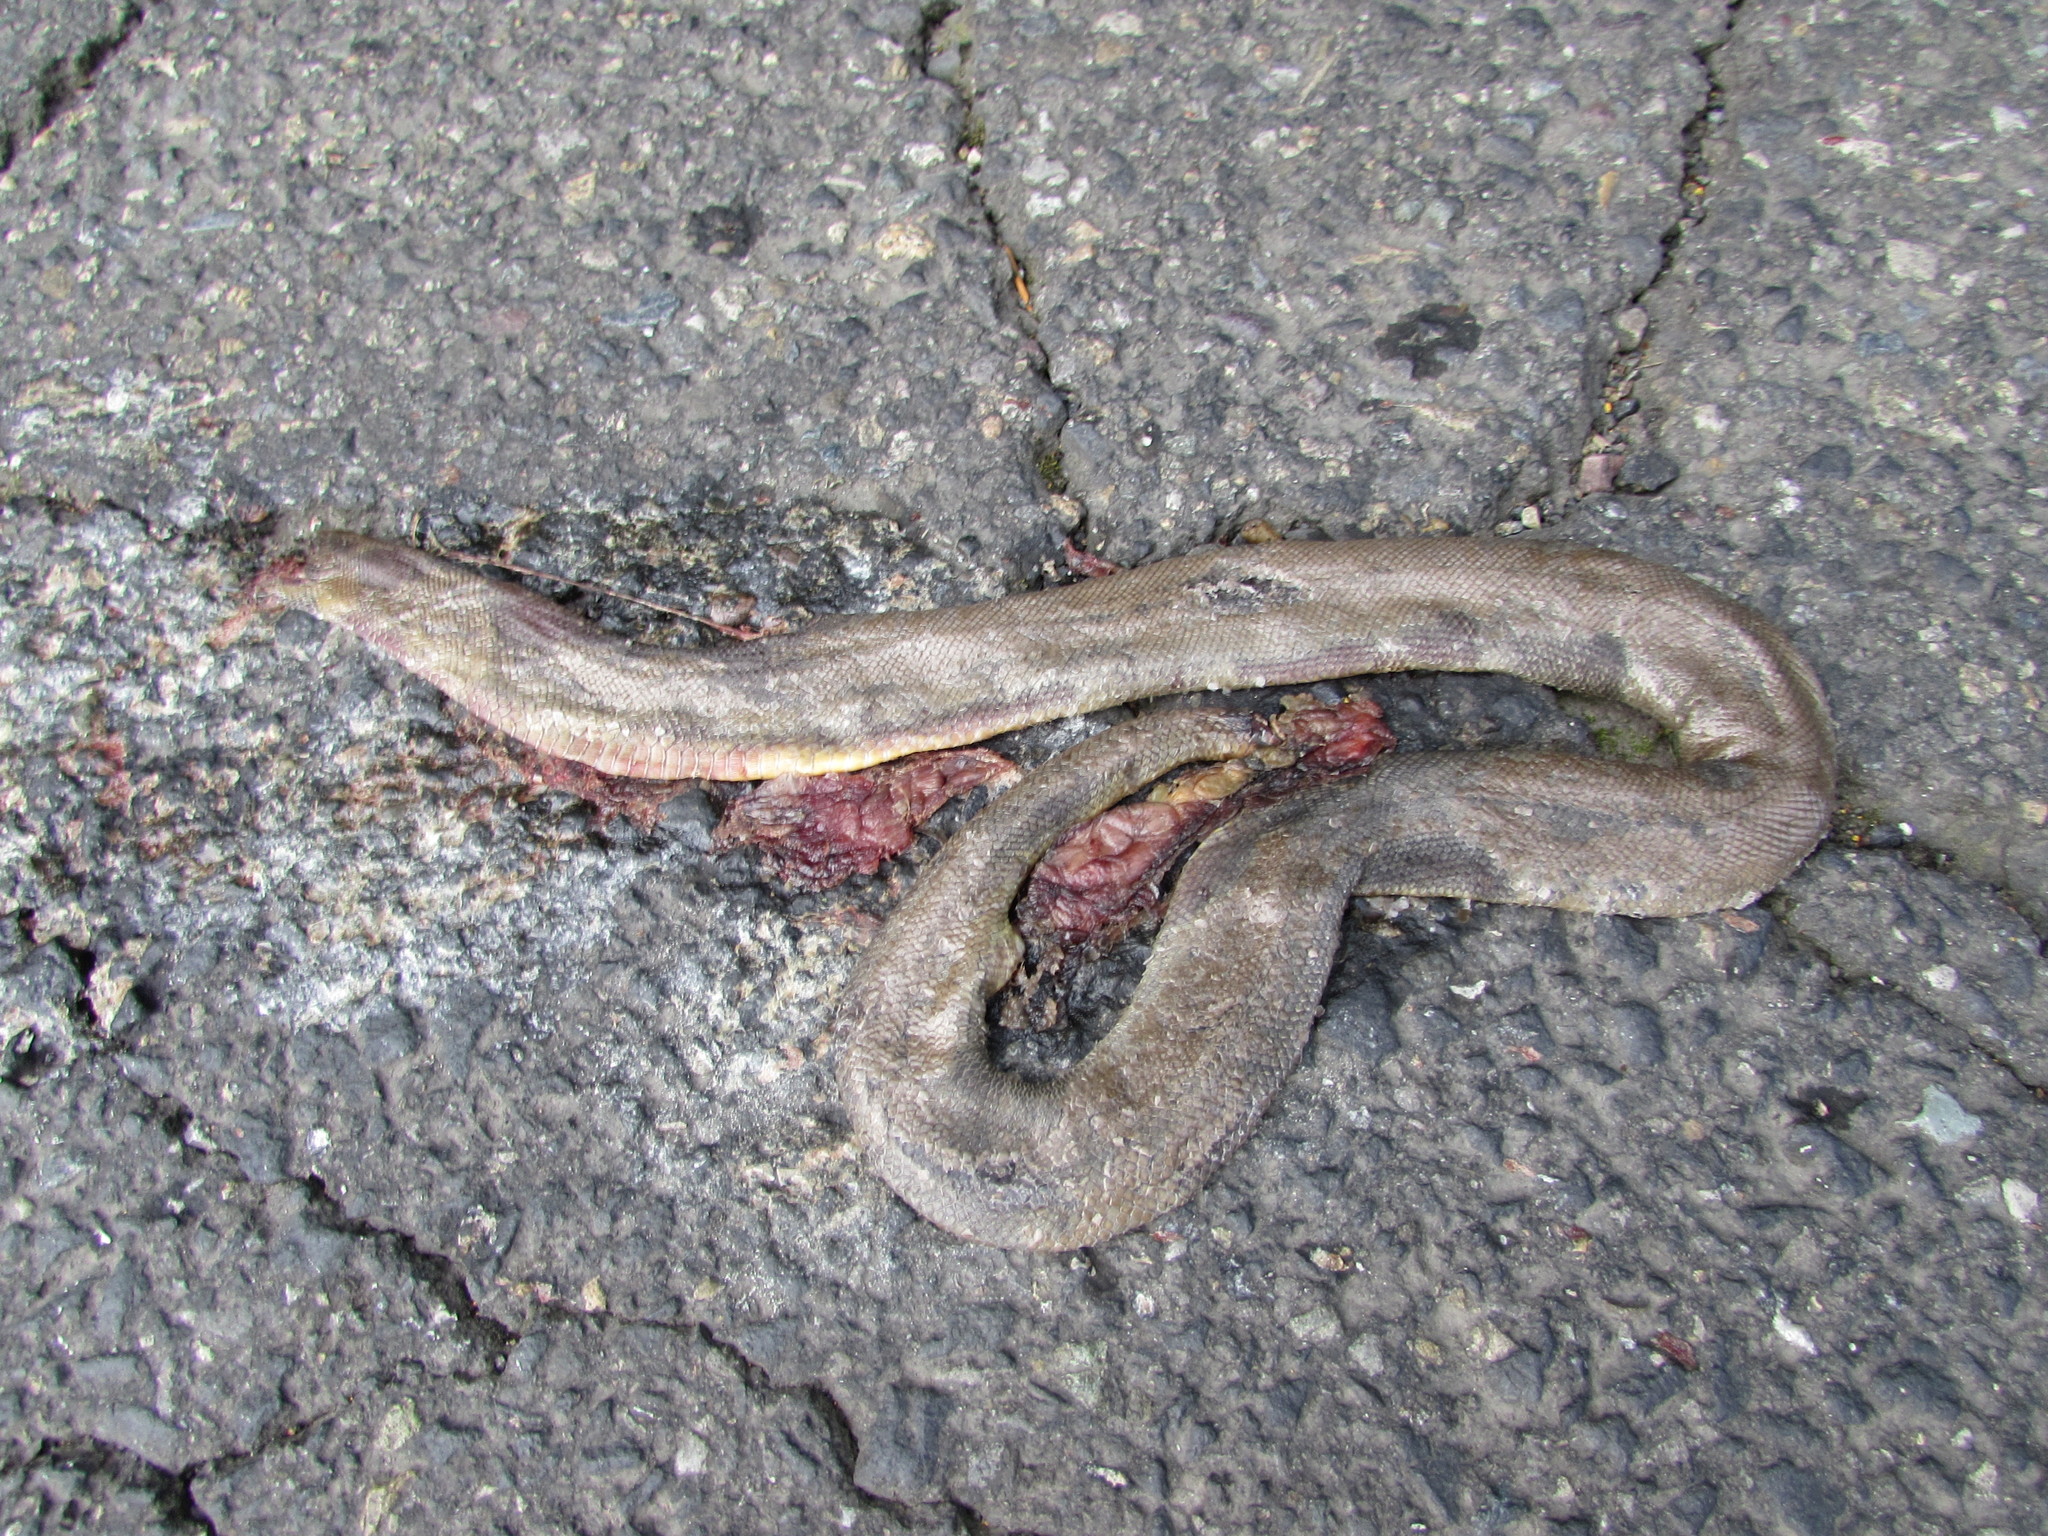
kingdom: Animalia
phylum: Chordata
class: Squamata
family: Boidae
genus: Charina
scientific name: Charina bottae
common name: Northern rubber boa
